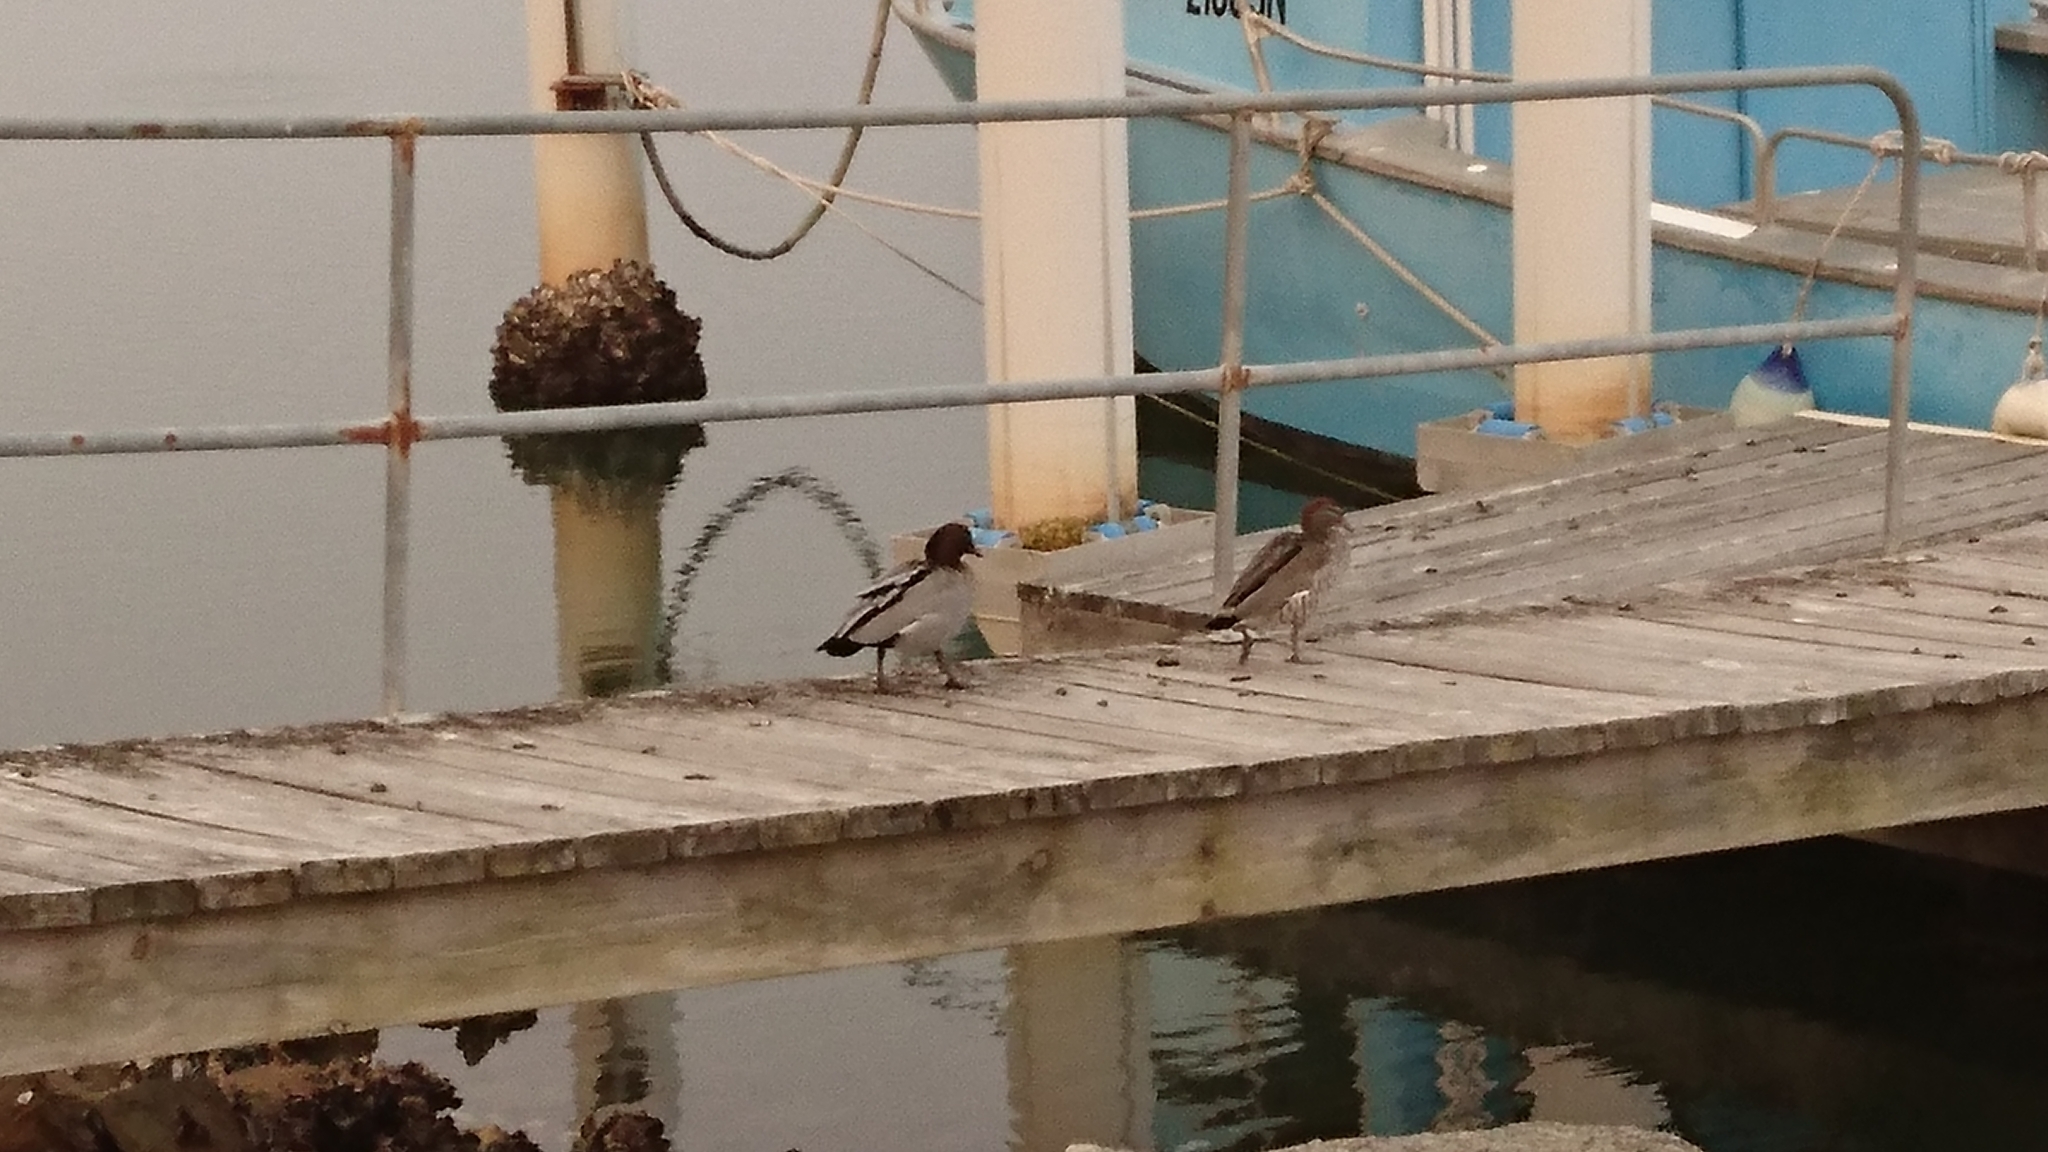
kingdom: Animalia
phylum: Chordata
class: Aves
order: Anseriformes
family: Anatidae
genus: Chenonetta
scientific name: Chenonetta jubata
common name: Maned duck
